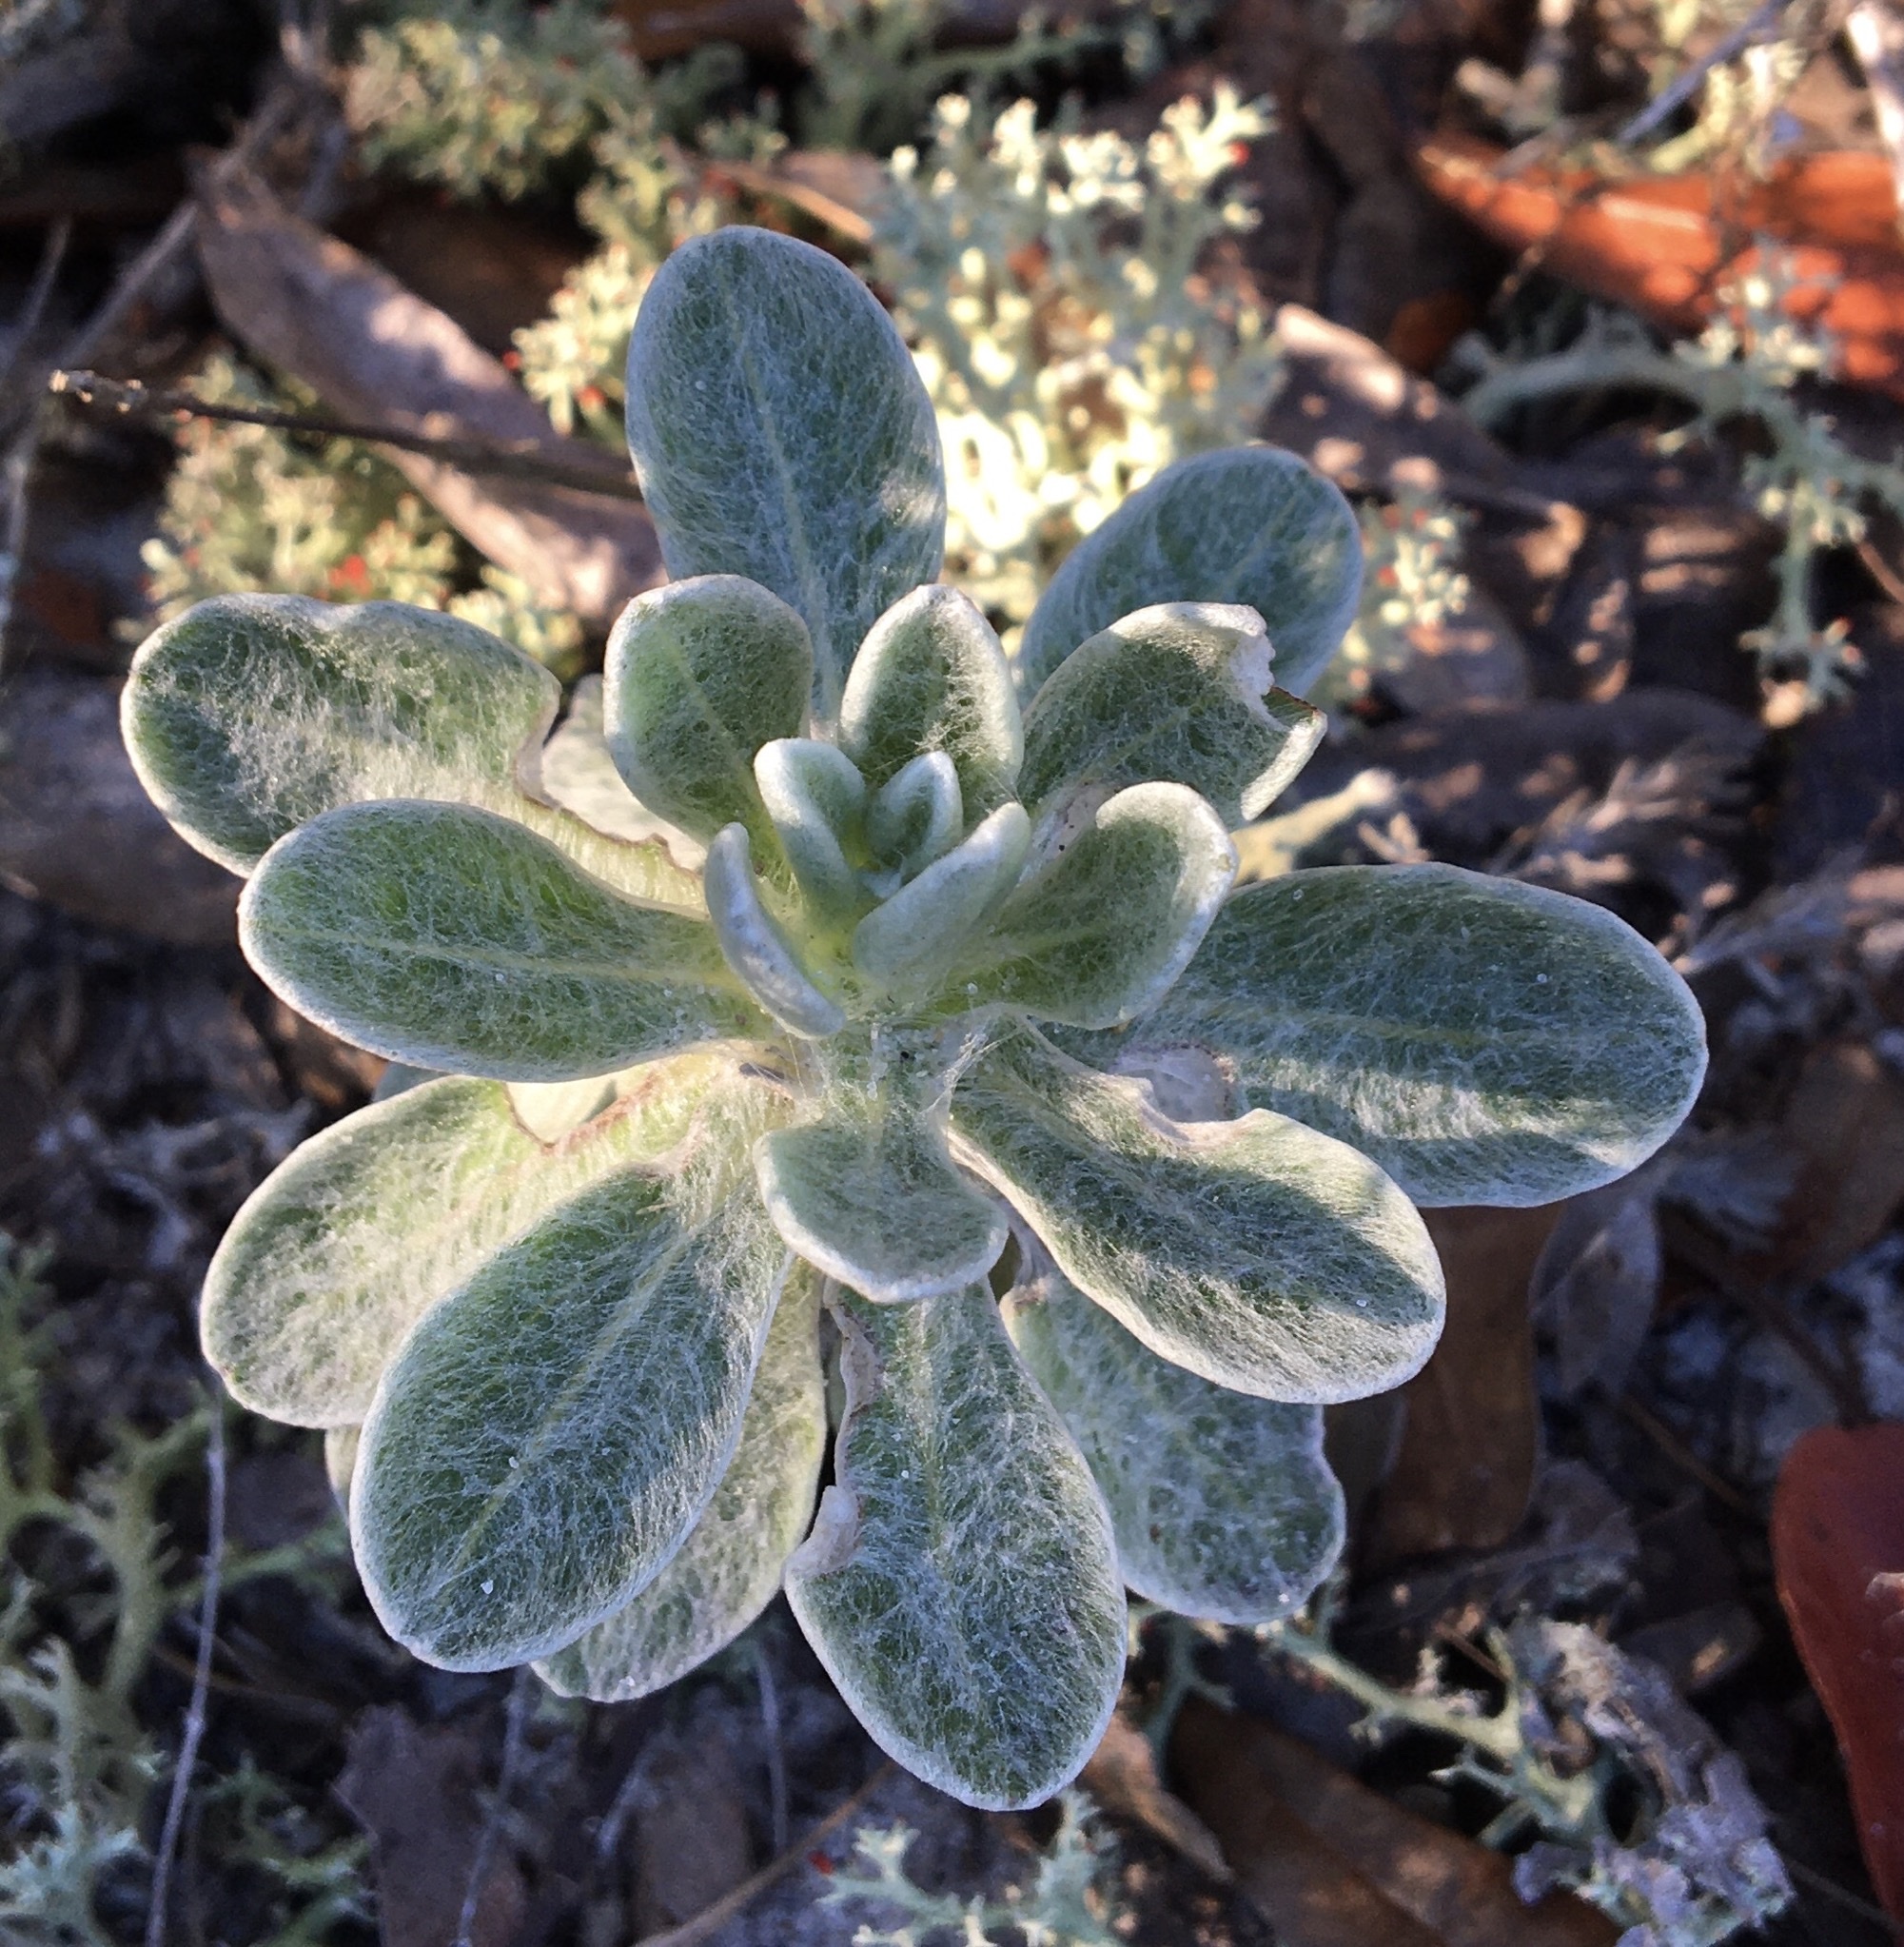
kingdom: Plantae
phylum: Tracheophyta
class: Magnoliopsida
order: Asterales
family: Asteraceae
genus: Chrysopsis
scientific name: Chrysopsis godfreyi
